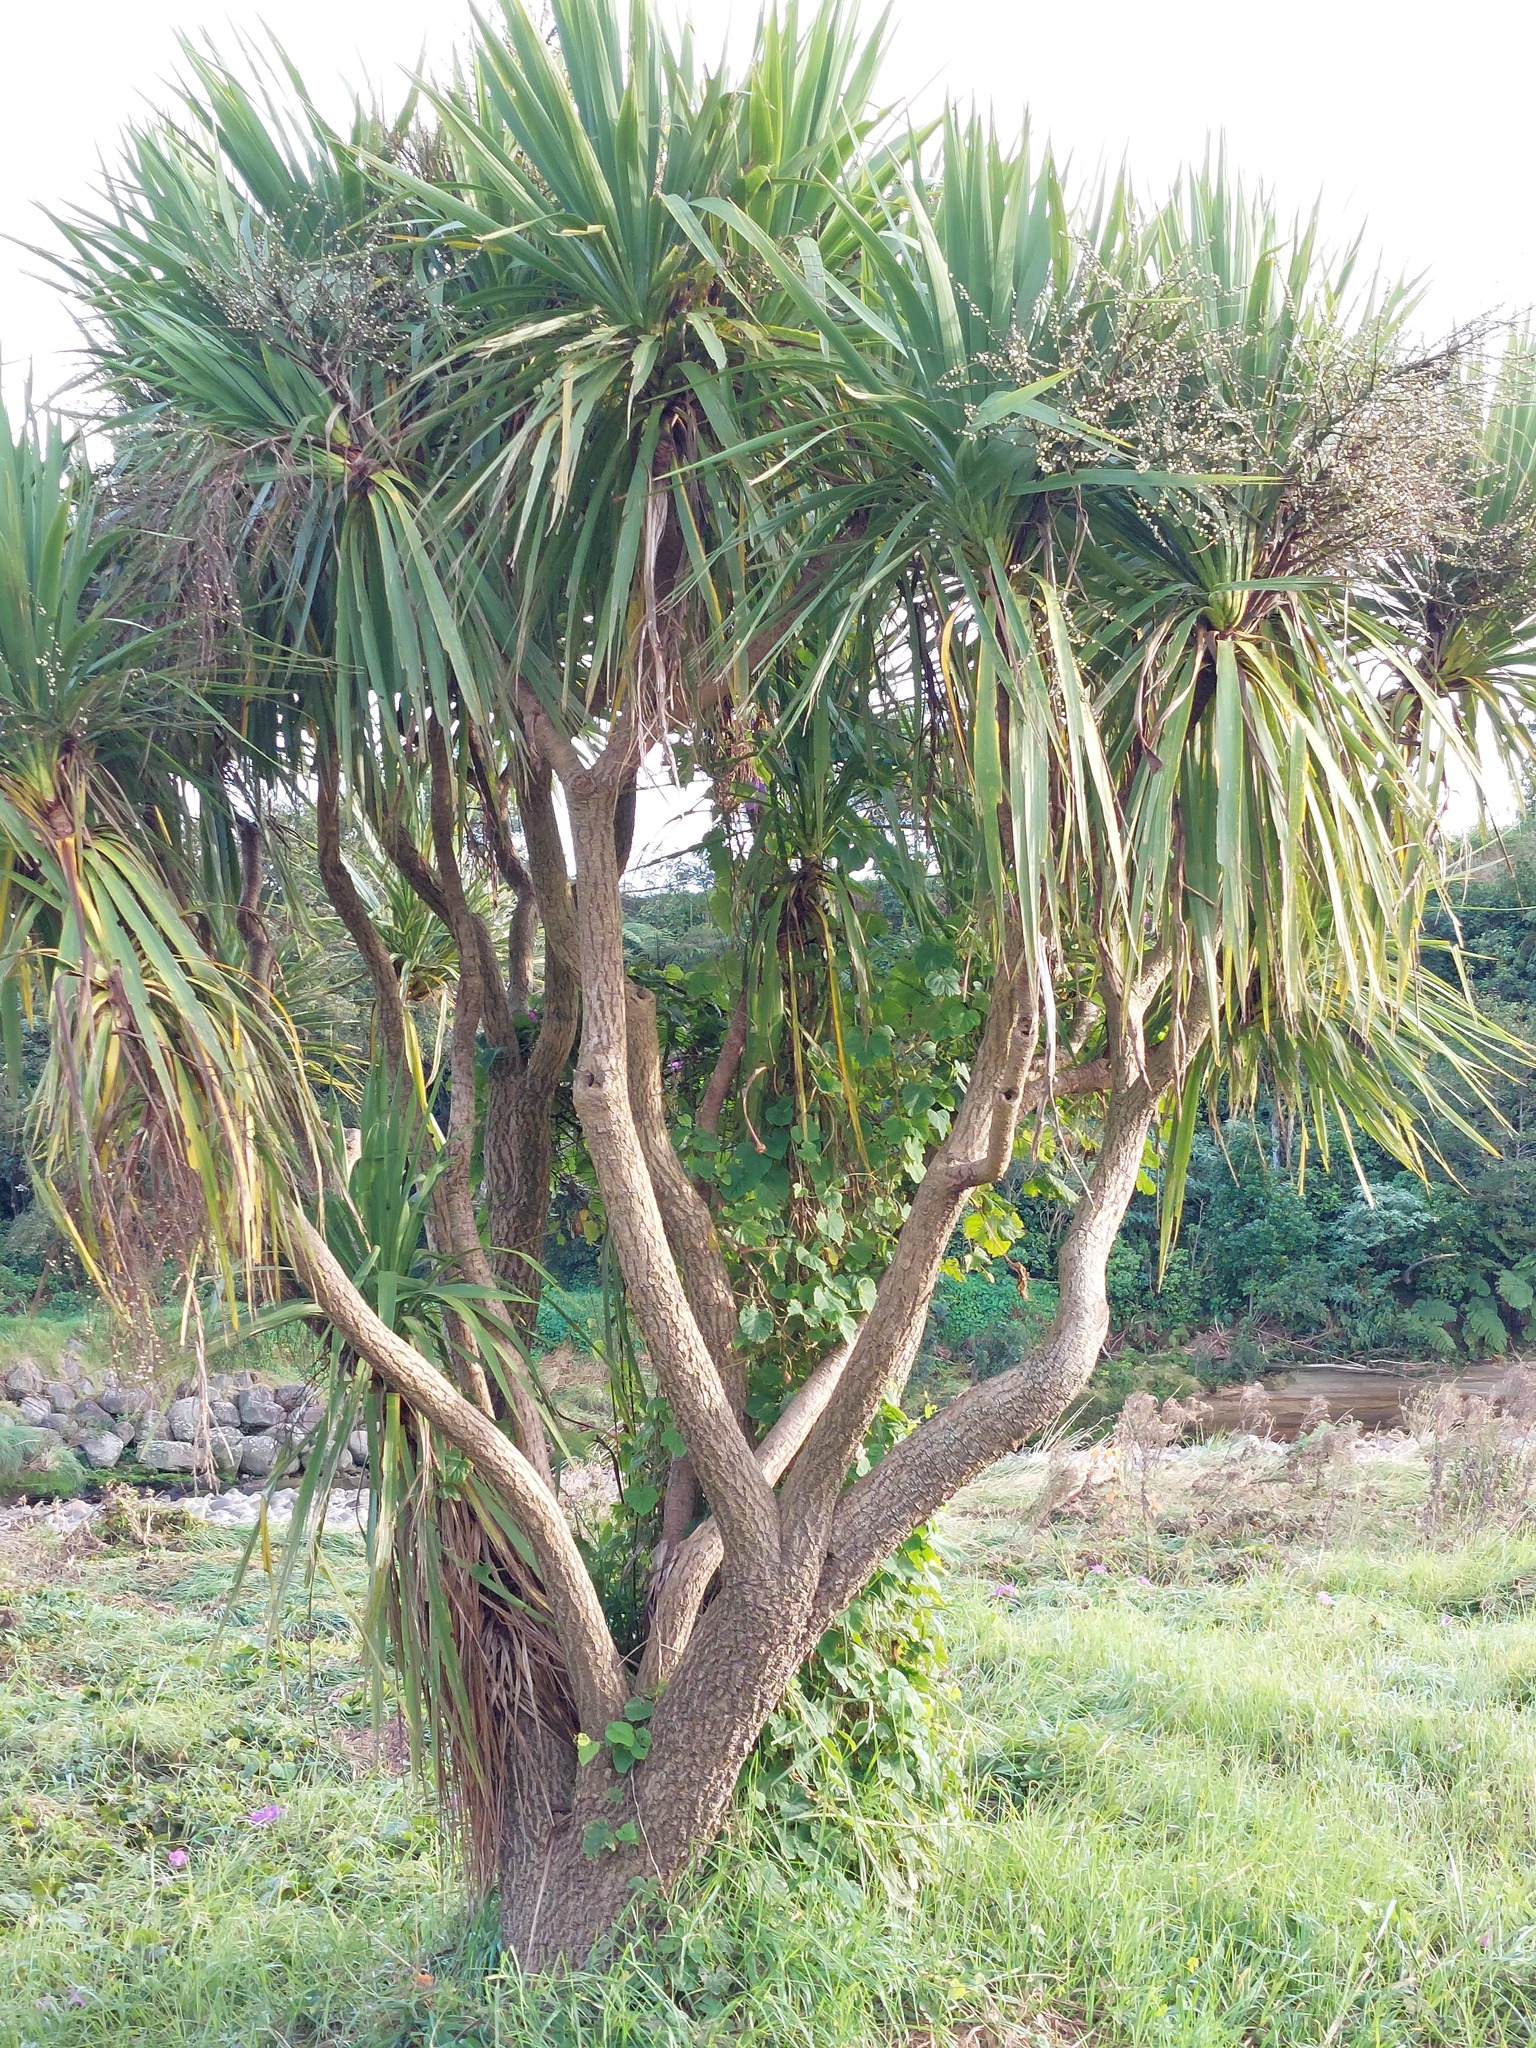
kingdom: Plantae
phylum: Tracheophyta
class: Liliopsida
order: Asparagales
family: Asparagaceae
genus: Cordyline
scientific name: Cordyline australis
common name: Cabbage-palm
